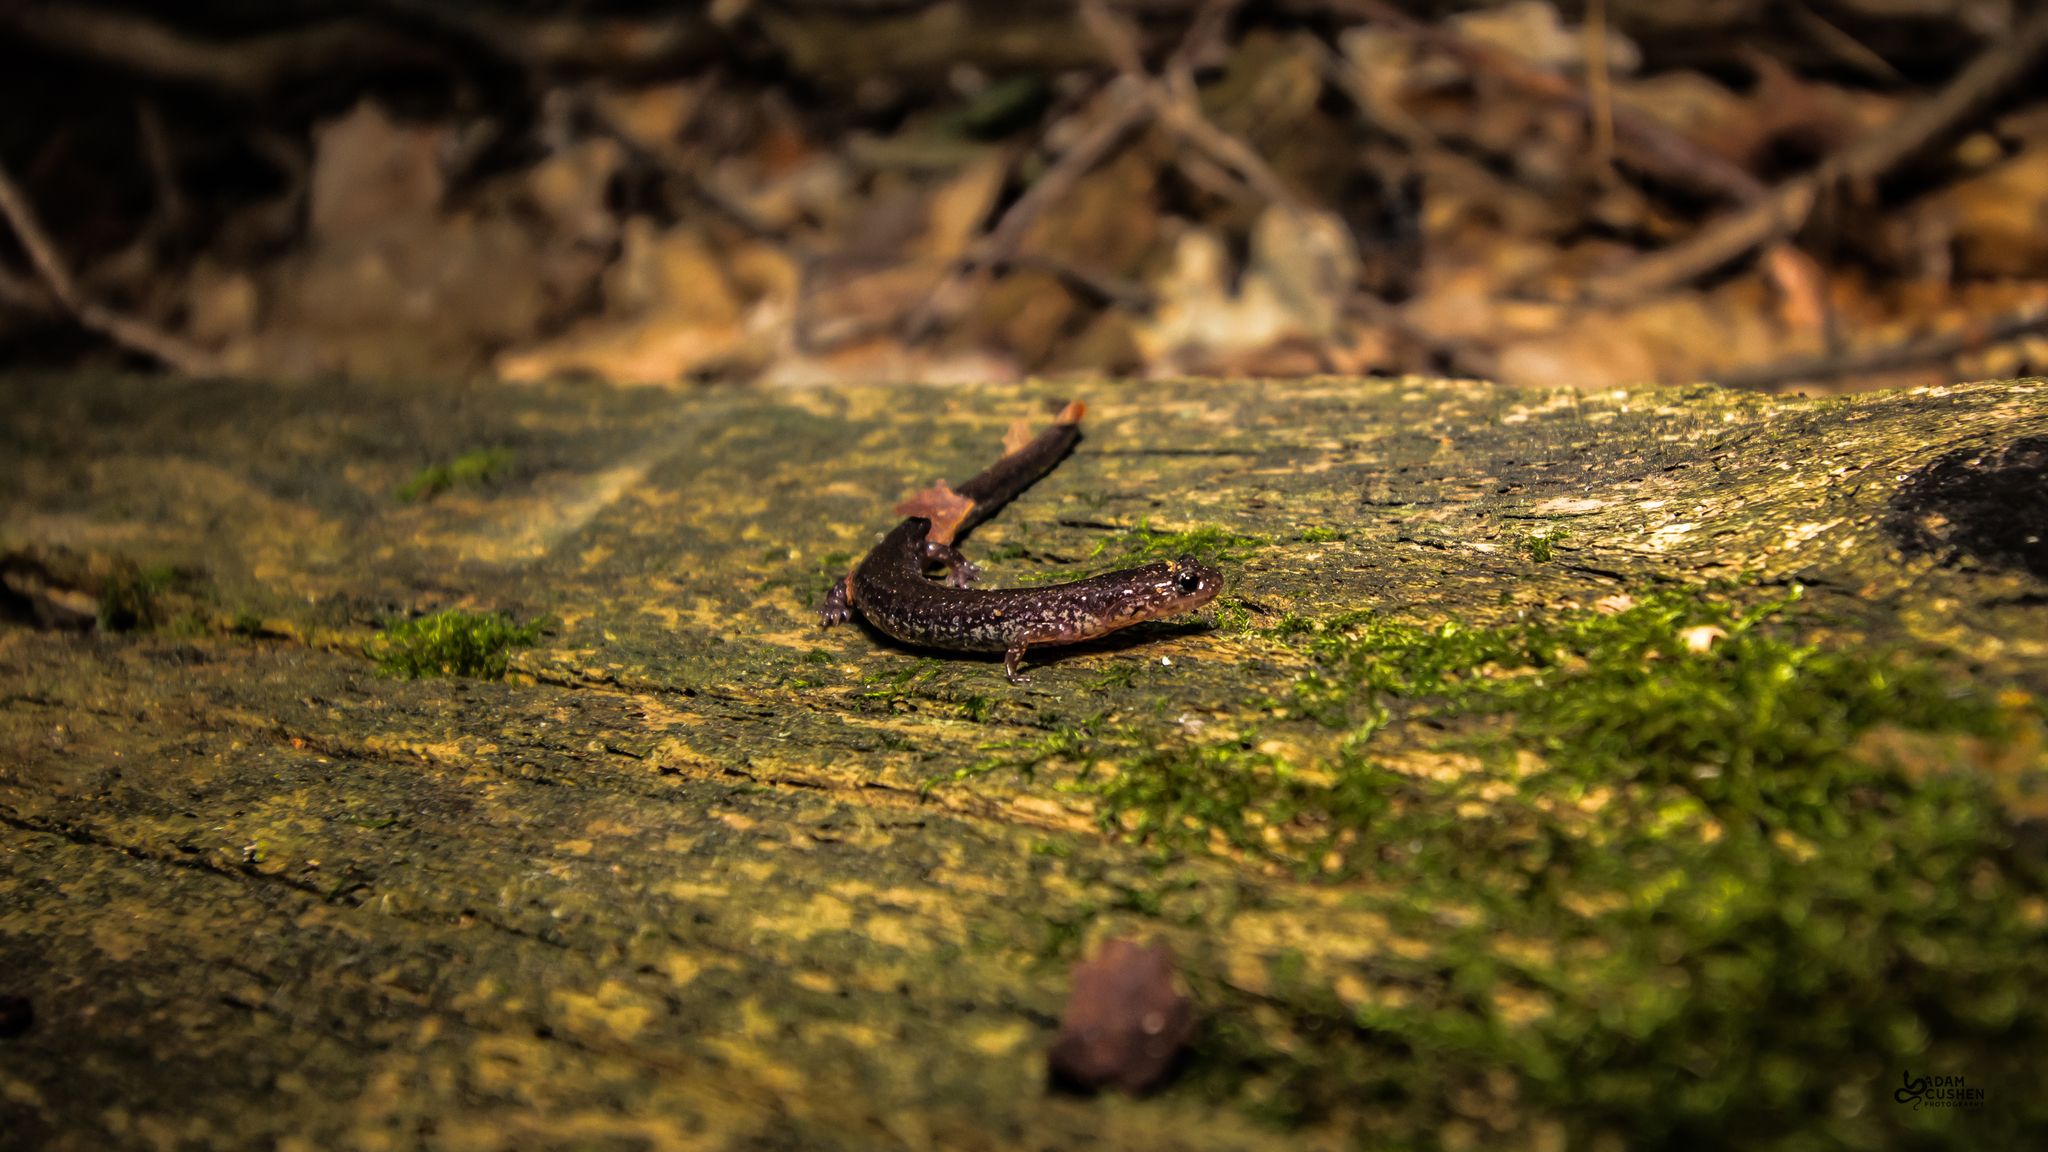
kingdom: Animalia
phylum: Chordata
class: Amphibia
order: Caudata
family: Plethodontidae
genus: Plethodon
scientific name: Plethodon cinereus
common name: Redback salamander
